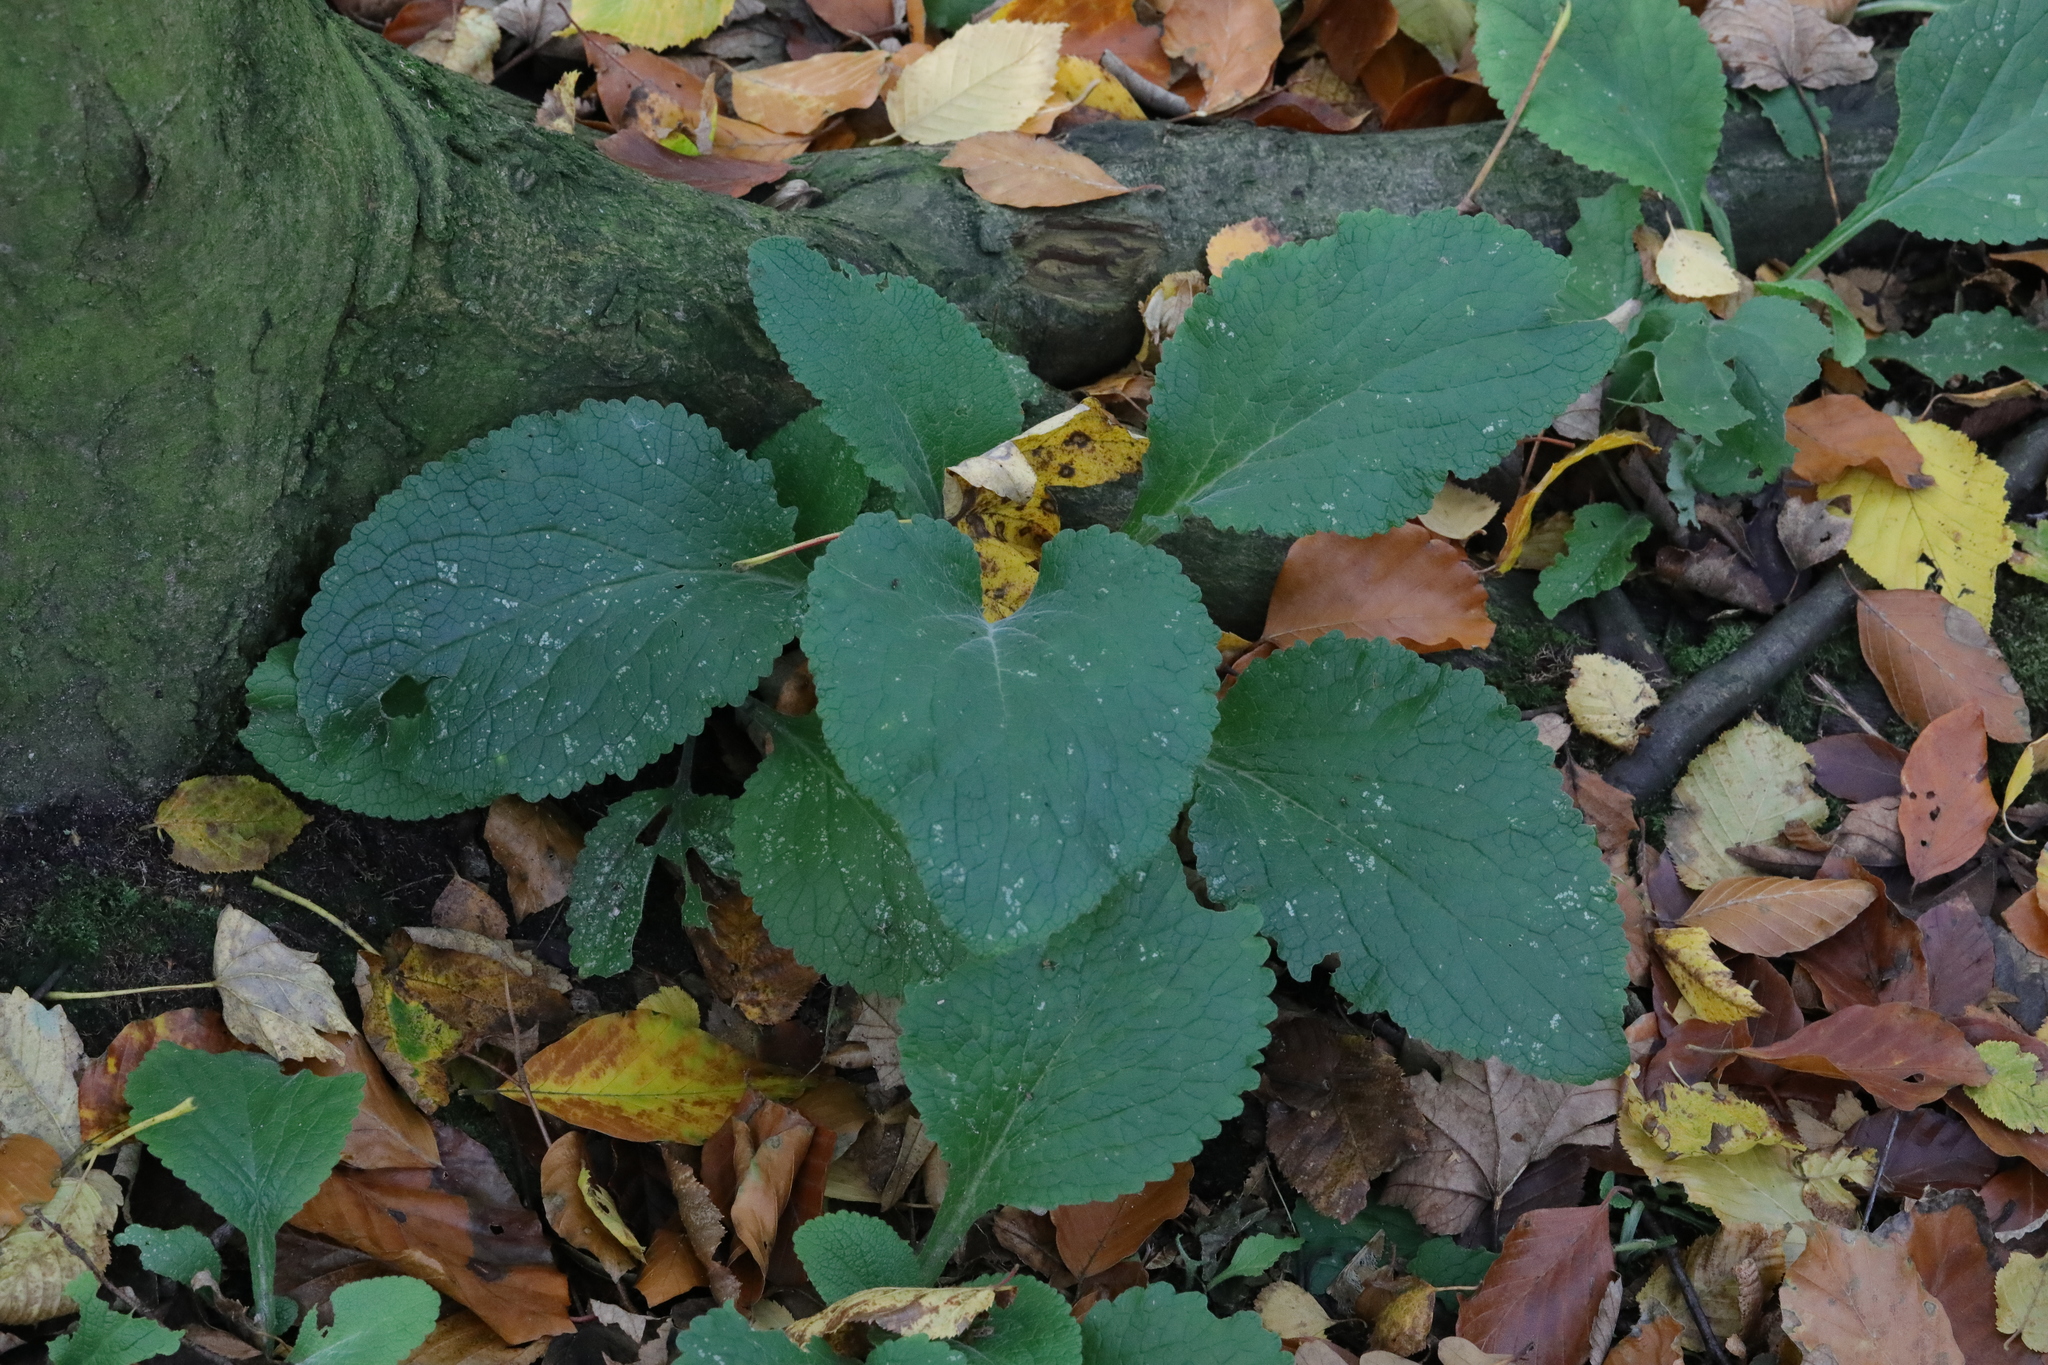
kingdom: Plantae
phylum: Tracheophyta
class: Magnoliopsida
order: Lamiales
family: Plantaginaceae
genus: Digitalis
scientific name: Digitalis purpurea
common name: Foxglove
